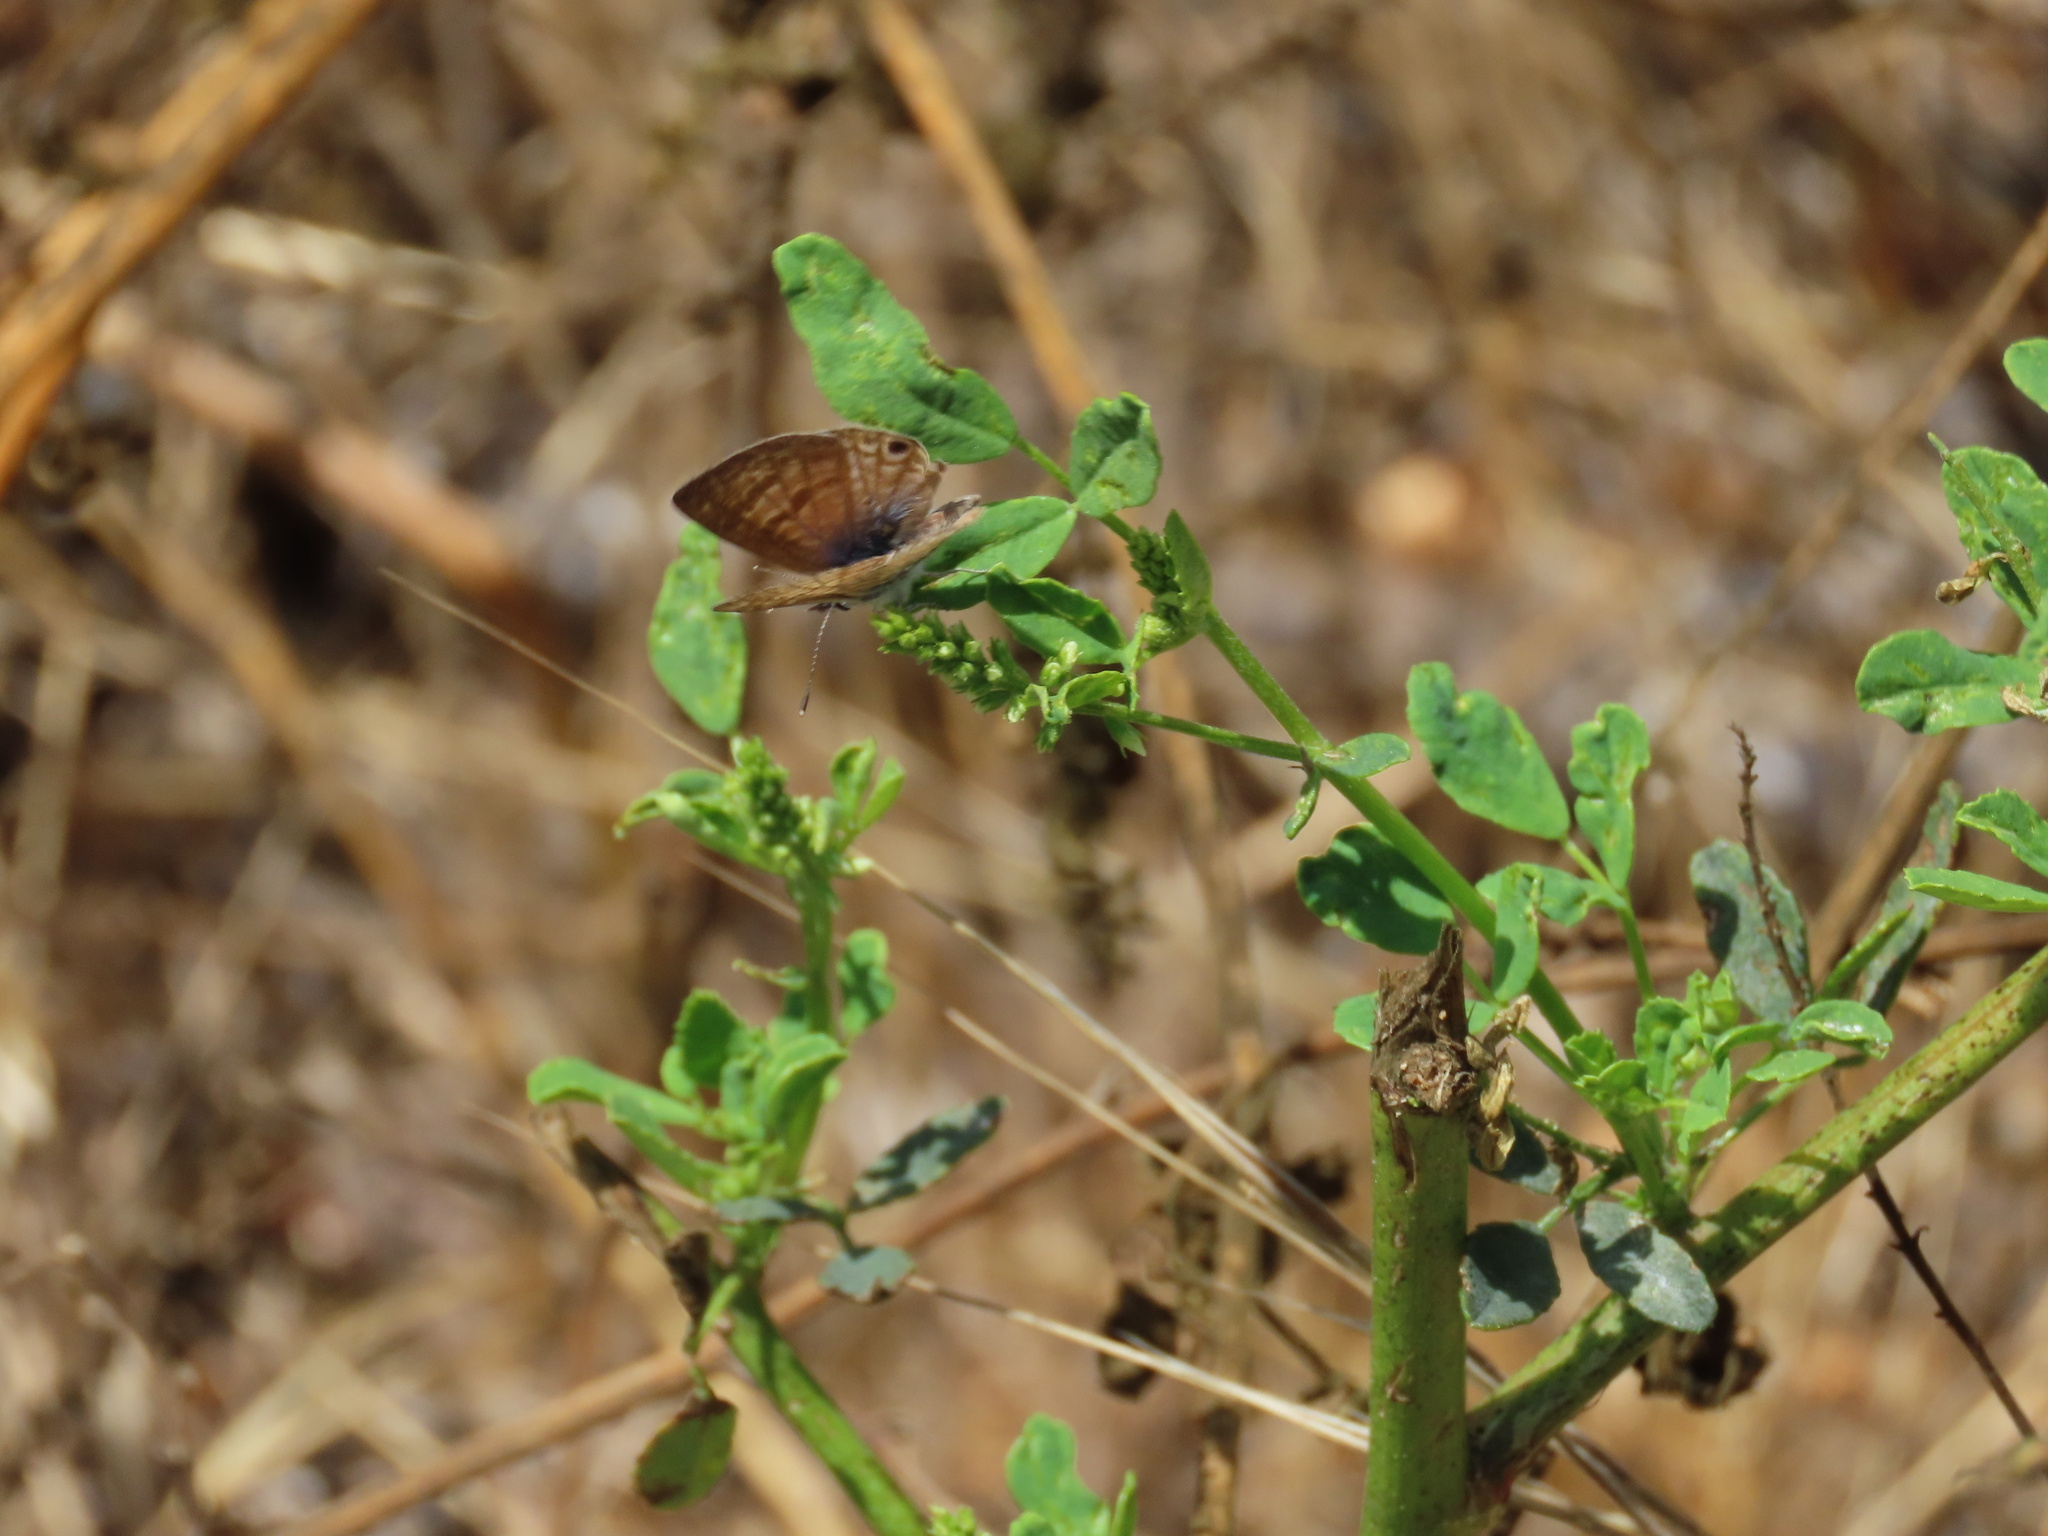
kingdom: Animalia
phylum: Arthropoda
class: Insecta
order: Lepidoptera
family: Lycaenidae
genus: Leptotes
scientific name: Leptotes marina
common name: Marine blue
